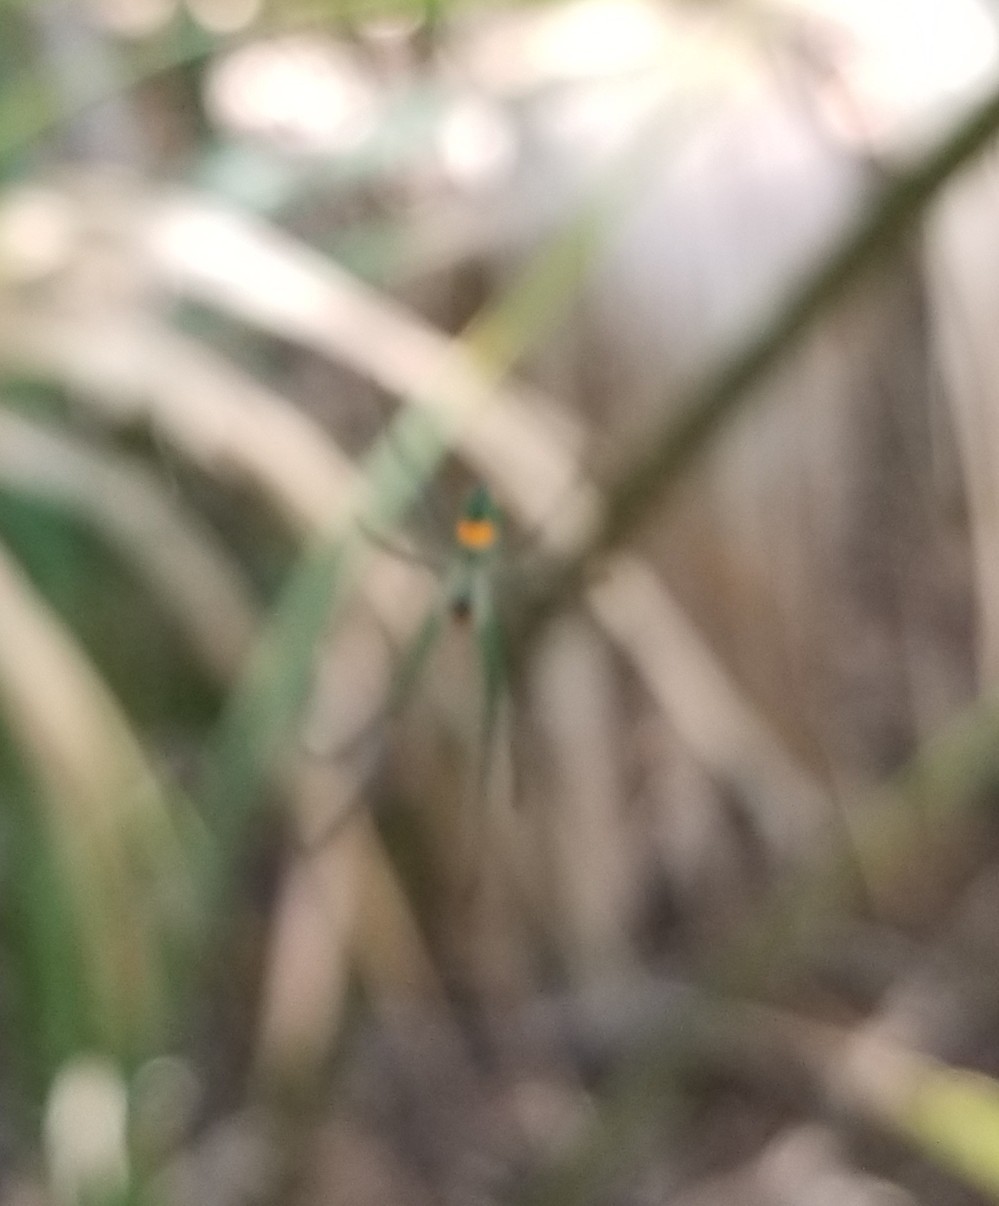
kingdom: Animalia
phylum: Arthropoda
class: Arachnida
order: Araneae
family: Tetragnathidae
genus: Leucauge
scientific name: Leucauge argyrobapta
